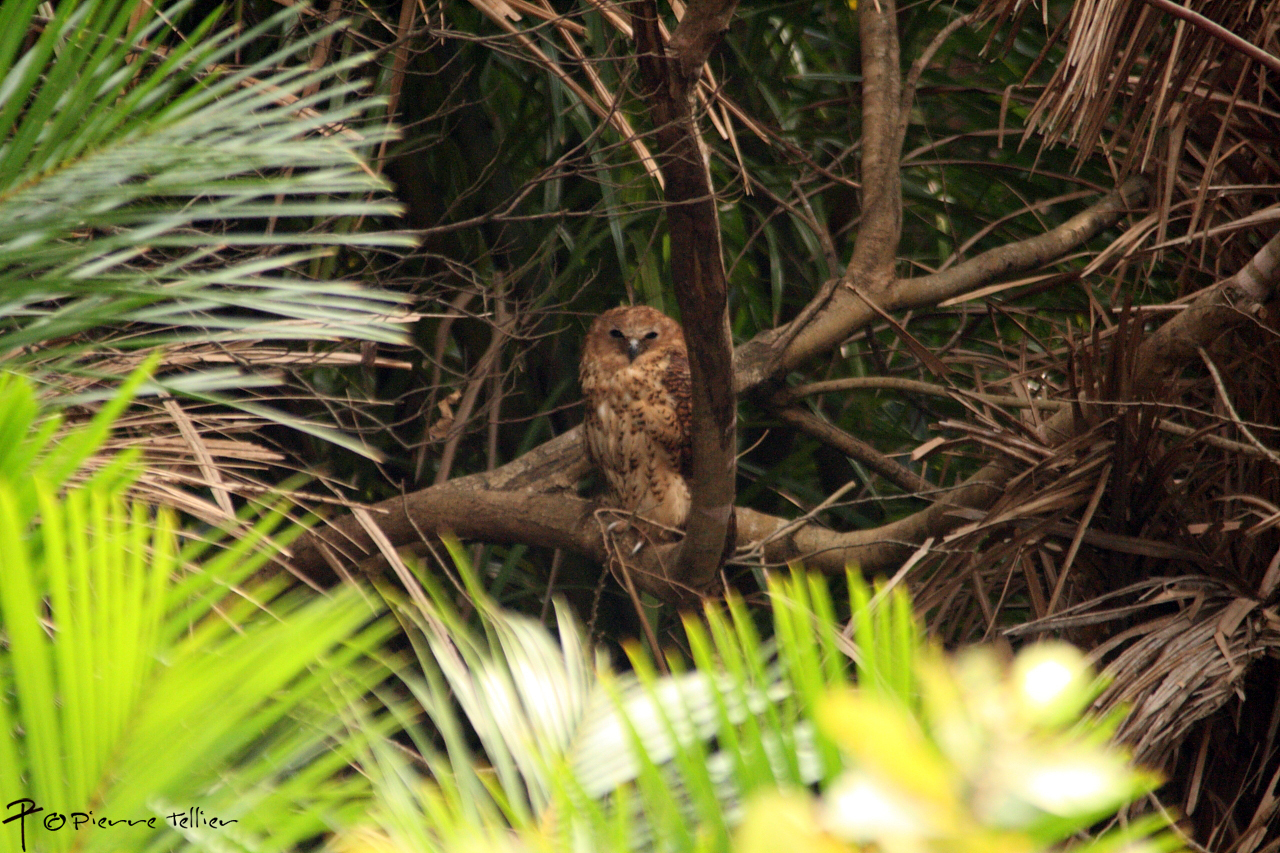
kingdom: Animalia
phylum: Chordata
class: Aves
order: Strigiformes
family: Strigidae
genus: Scotopelia
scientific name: Scotopelia peli
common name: Pel's fishing owl
